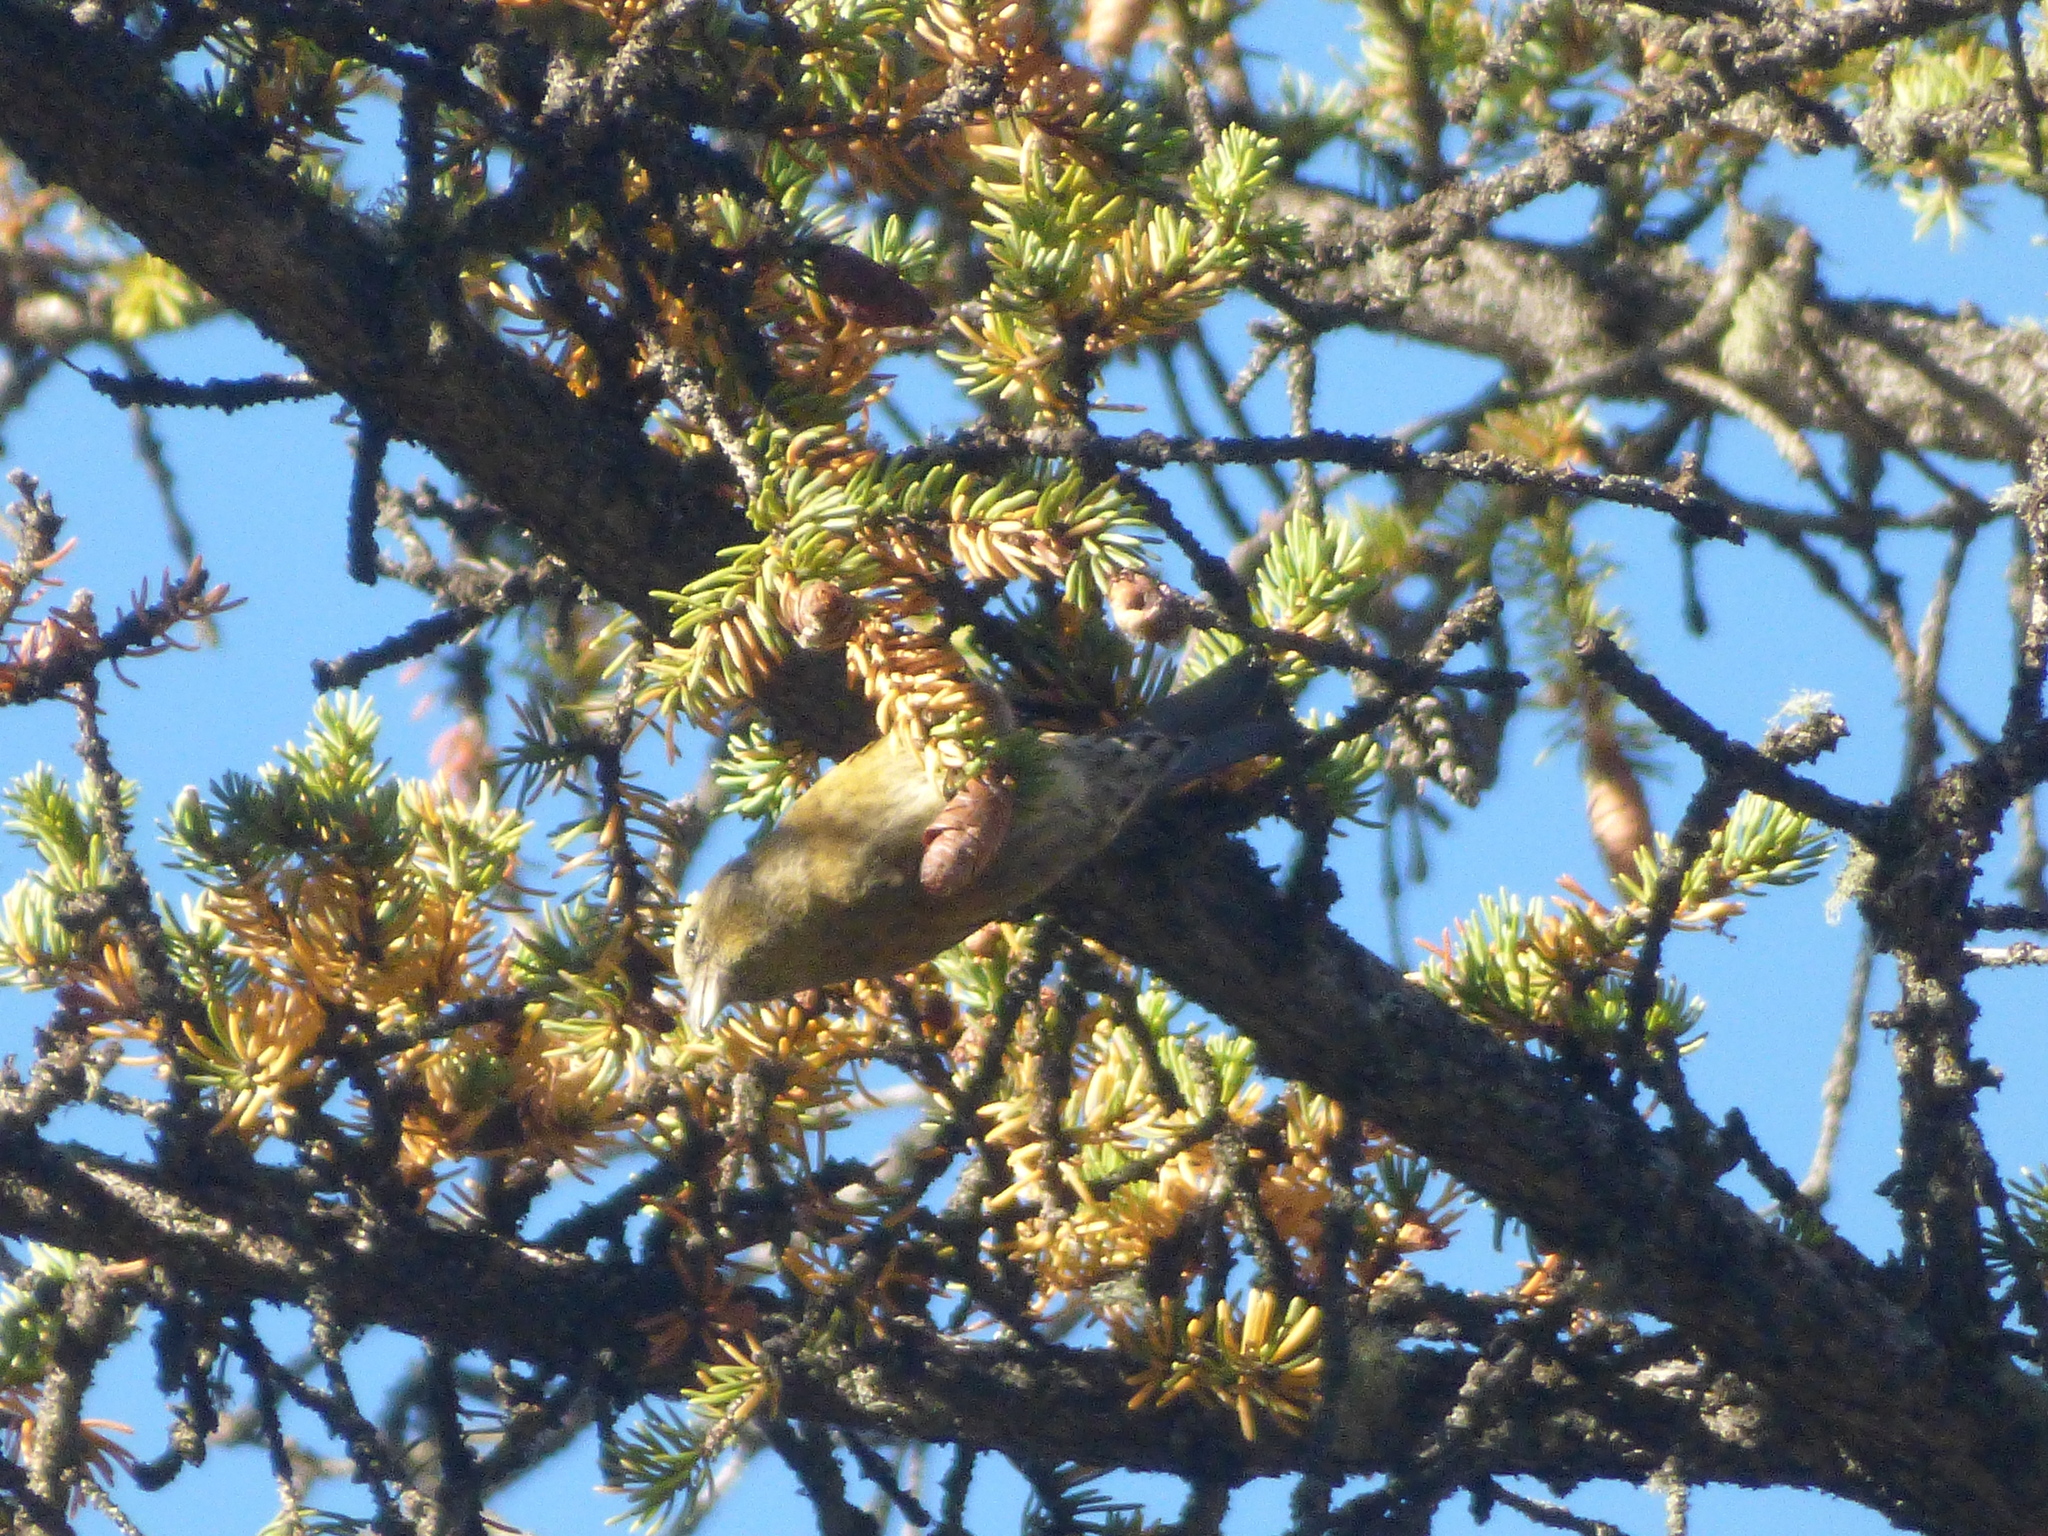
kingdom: Animalia
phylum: Chordata
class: Aves
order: Passeriformes
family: Fringillidae
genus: Loxia
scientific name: Loxia leucoptera
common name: Two-barred crossbill
